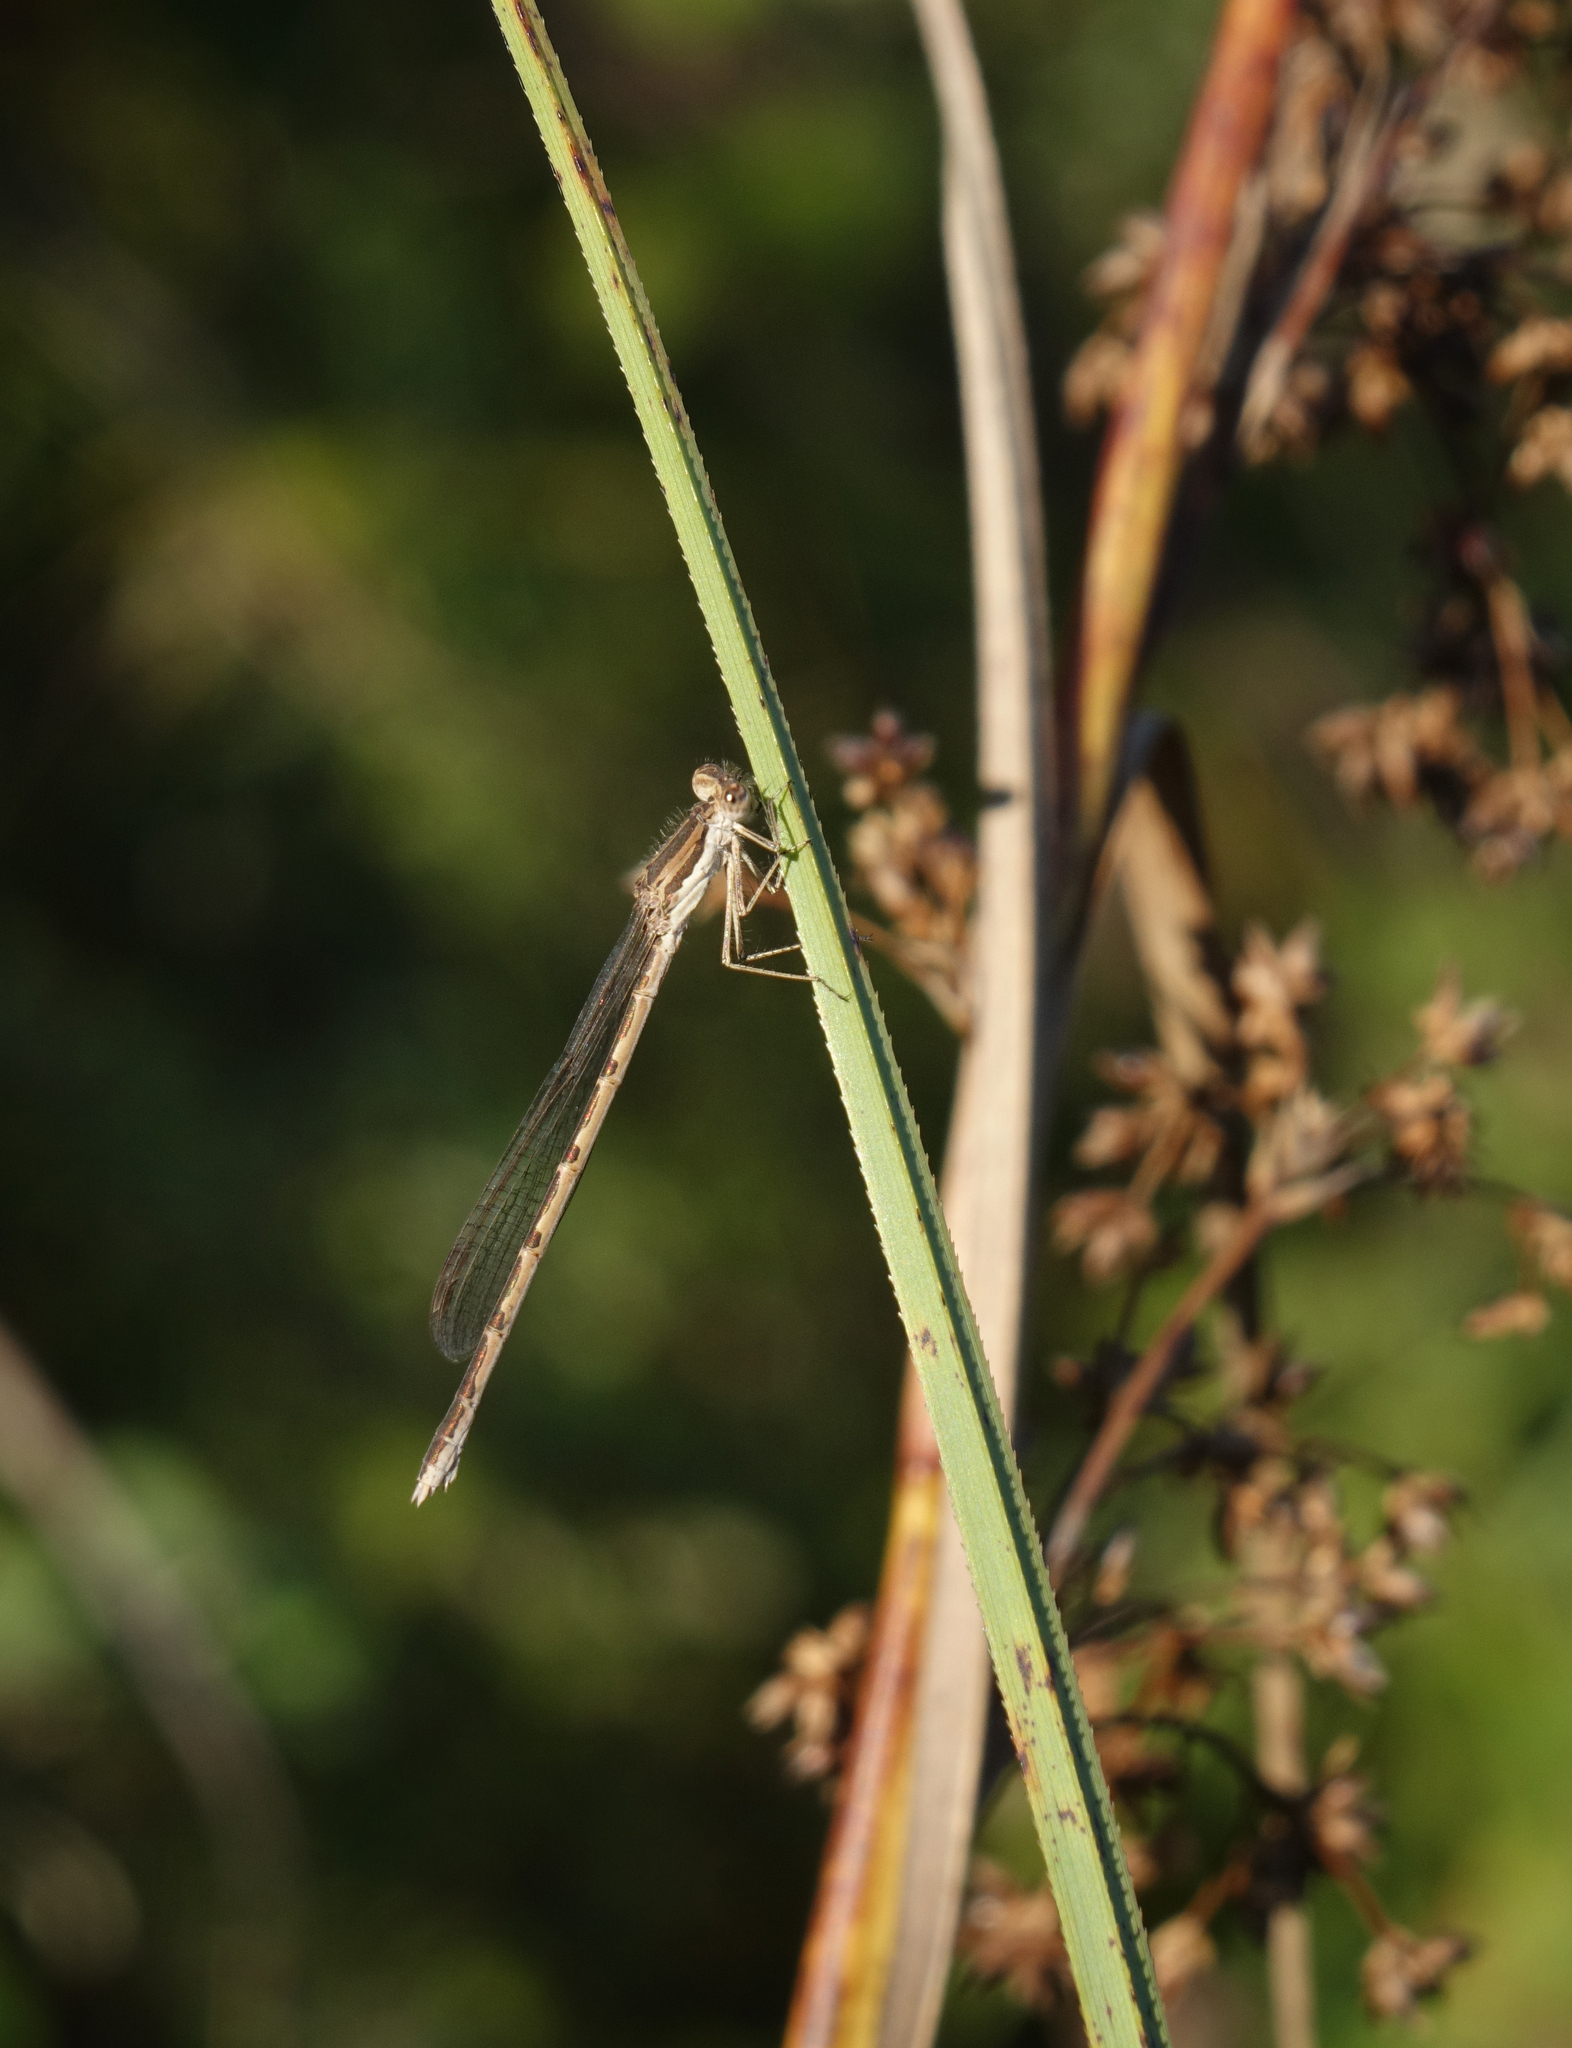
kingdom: Animalia
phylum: Arthropoda
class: Insecta
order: Odonata
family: Lestidae
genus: Sympecma
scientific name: Sympecma fusca
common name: Common winter damsel
